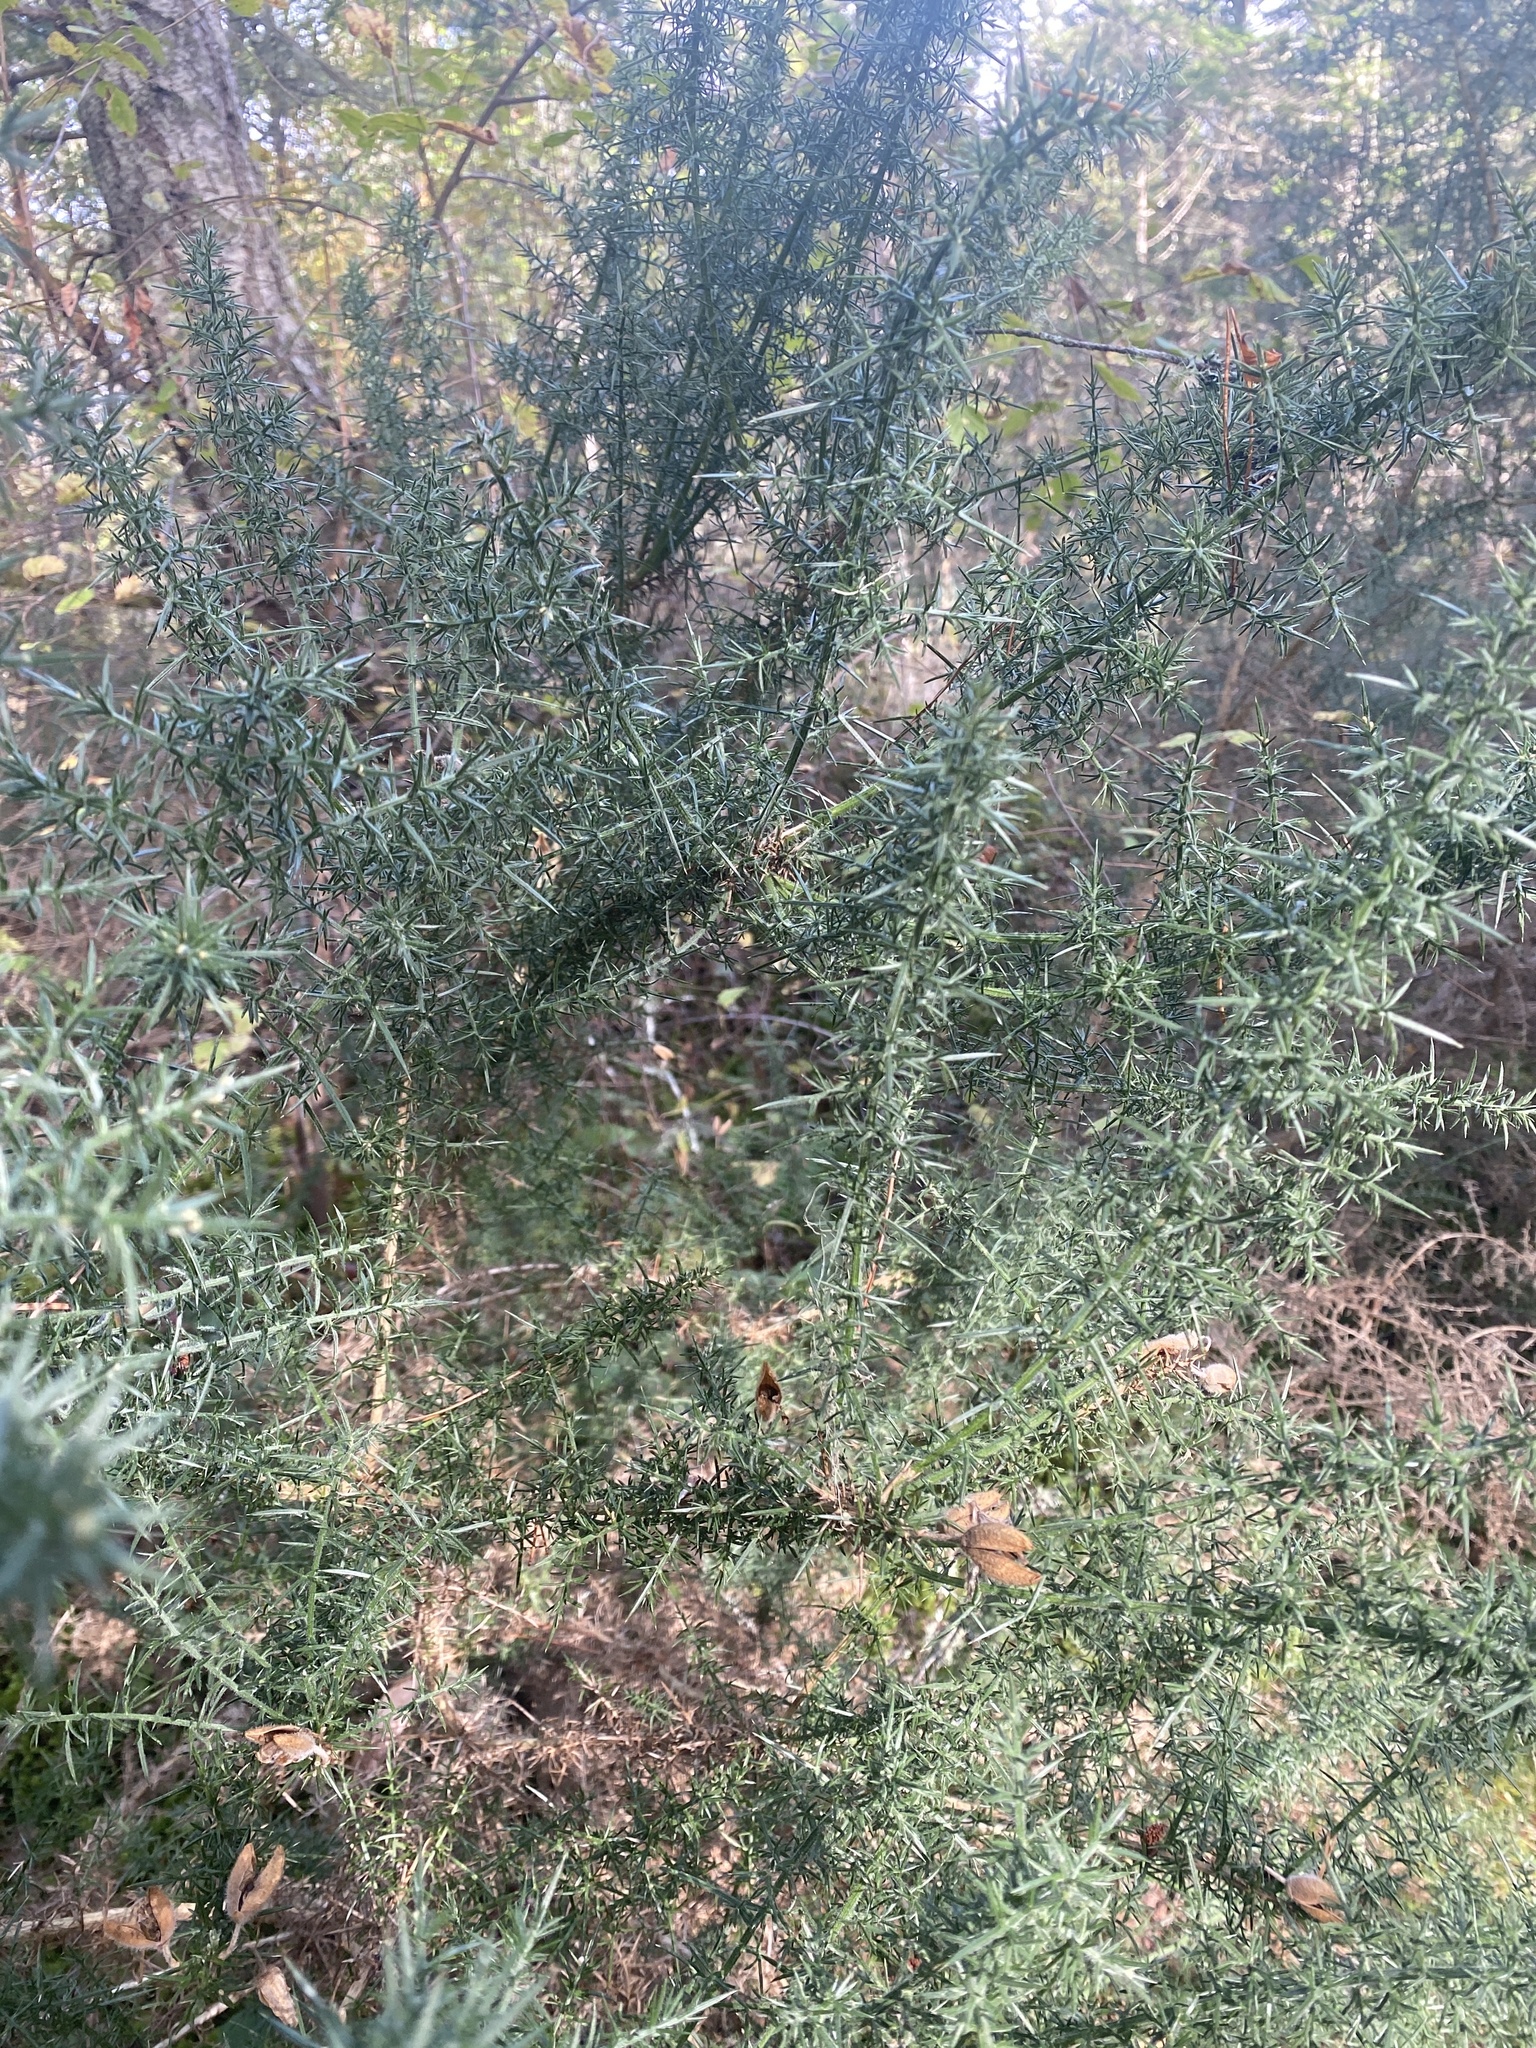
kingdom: Plantae
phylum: Tracheophyta
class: Magnoliopsida
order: Fabales
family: Fabaceae
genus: Ulex
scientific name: Ulex europaeus
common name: Common gorse
